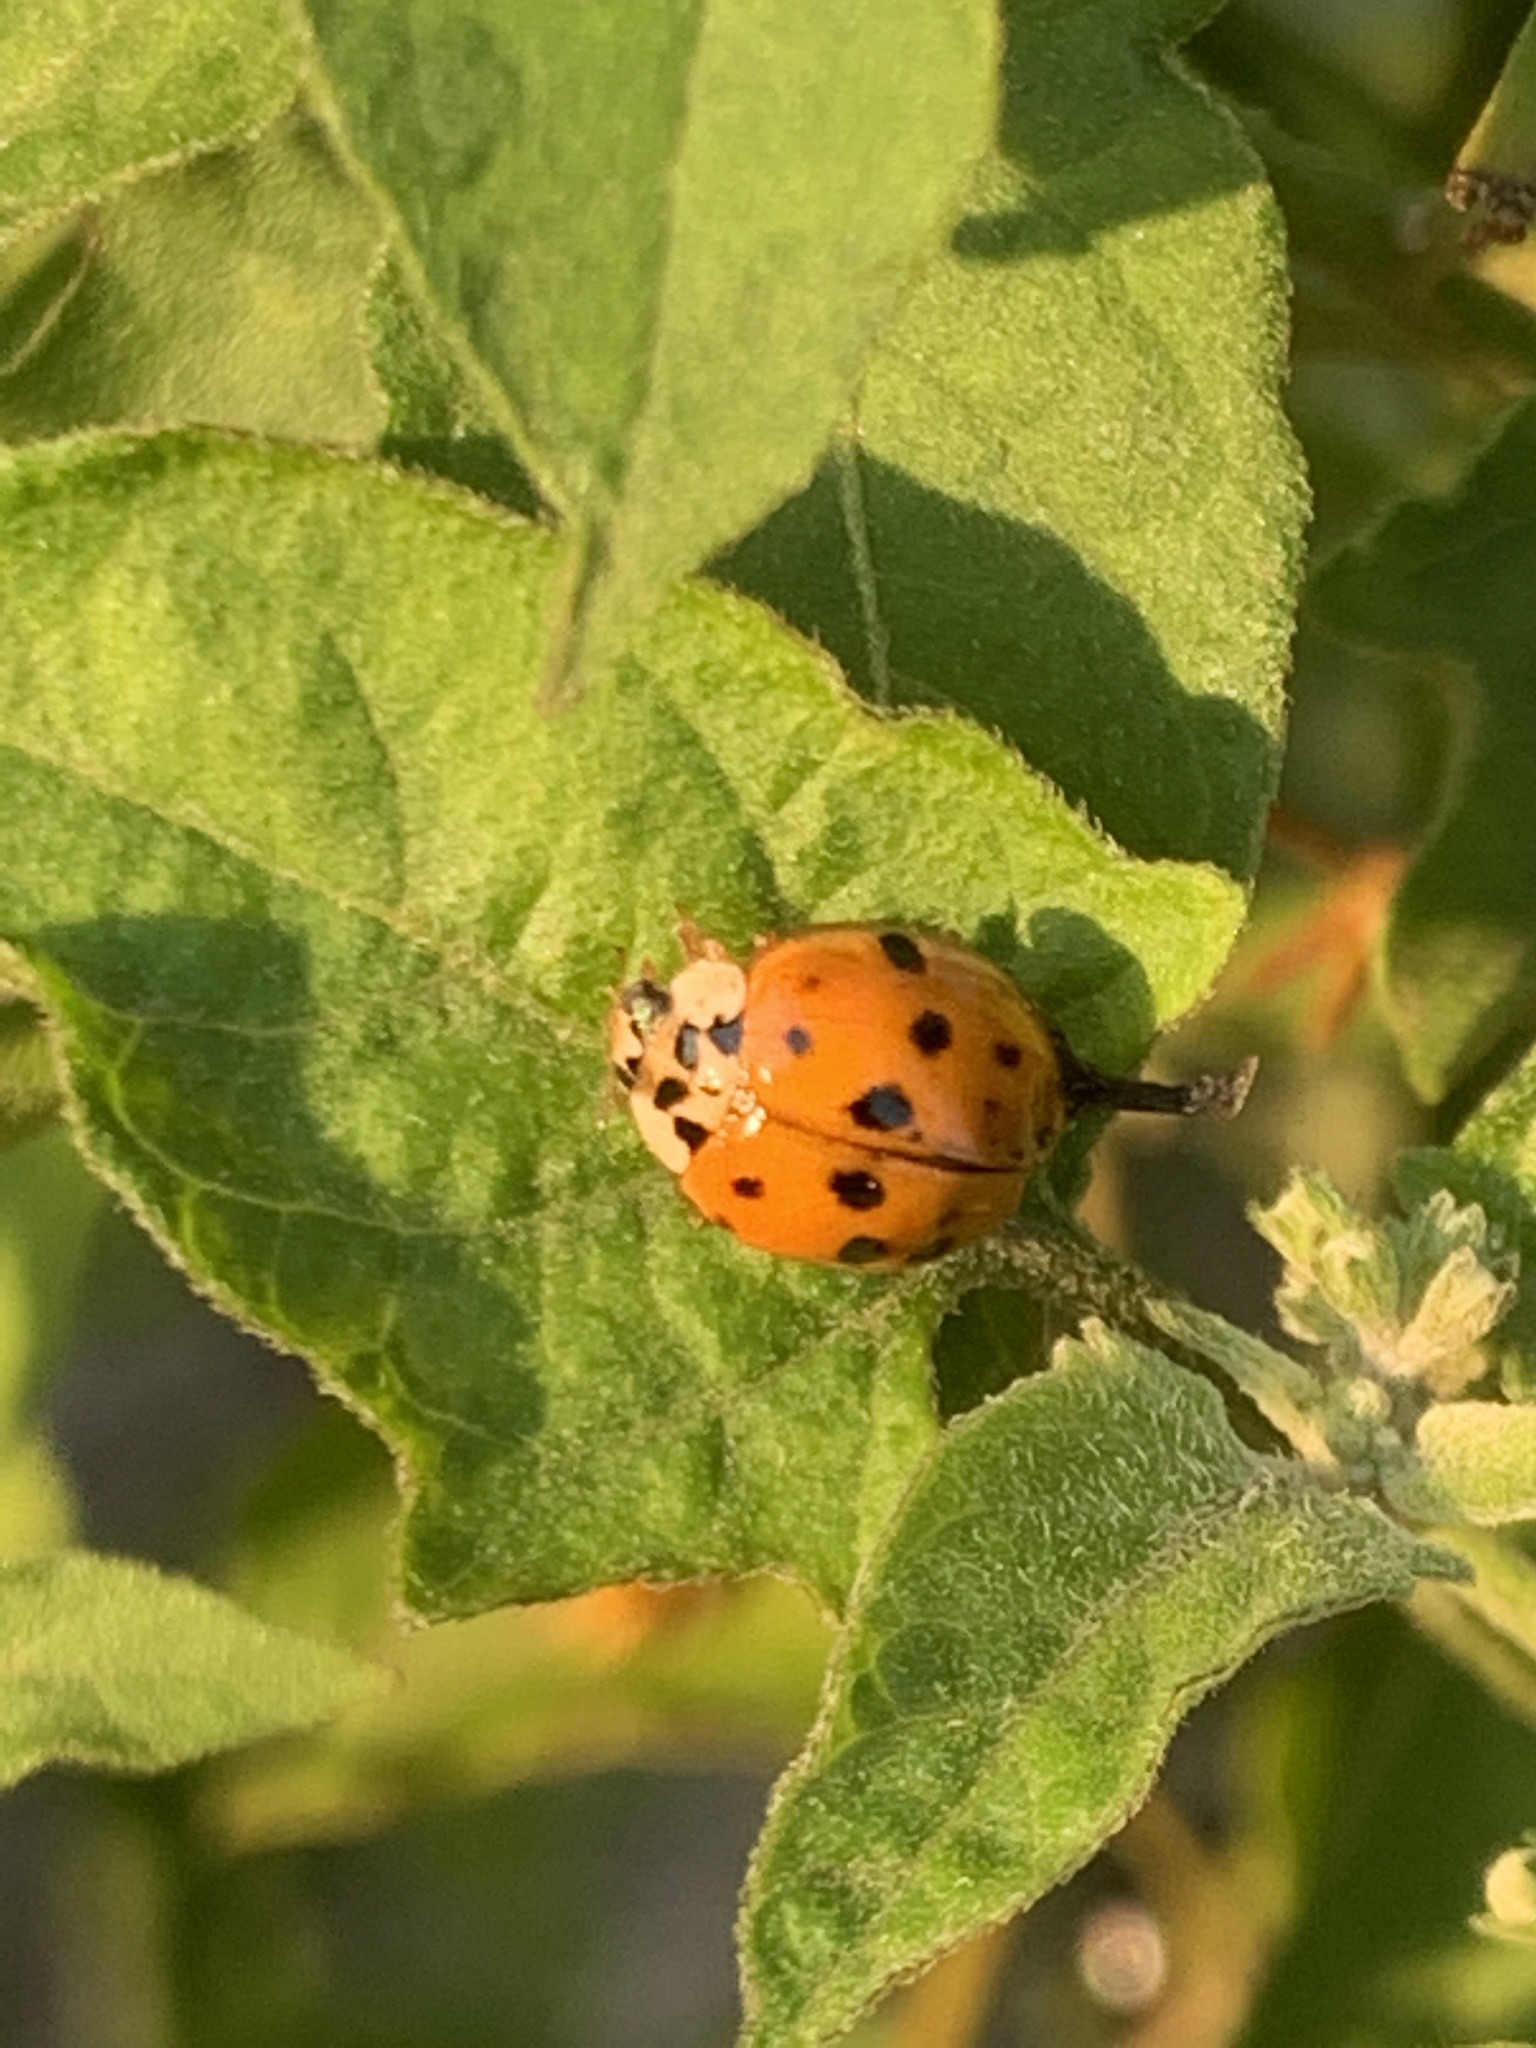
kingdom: Animalia
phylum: Arthropoda
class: Insecta
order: Coleoptera
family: Coccinellidae
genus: Harmonia
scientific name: Harmonia axyridis
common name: Harlequin ladybird
